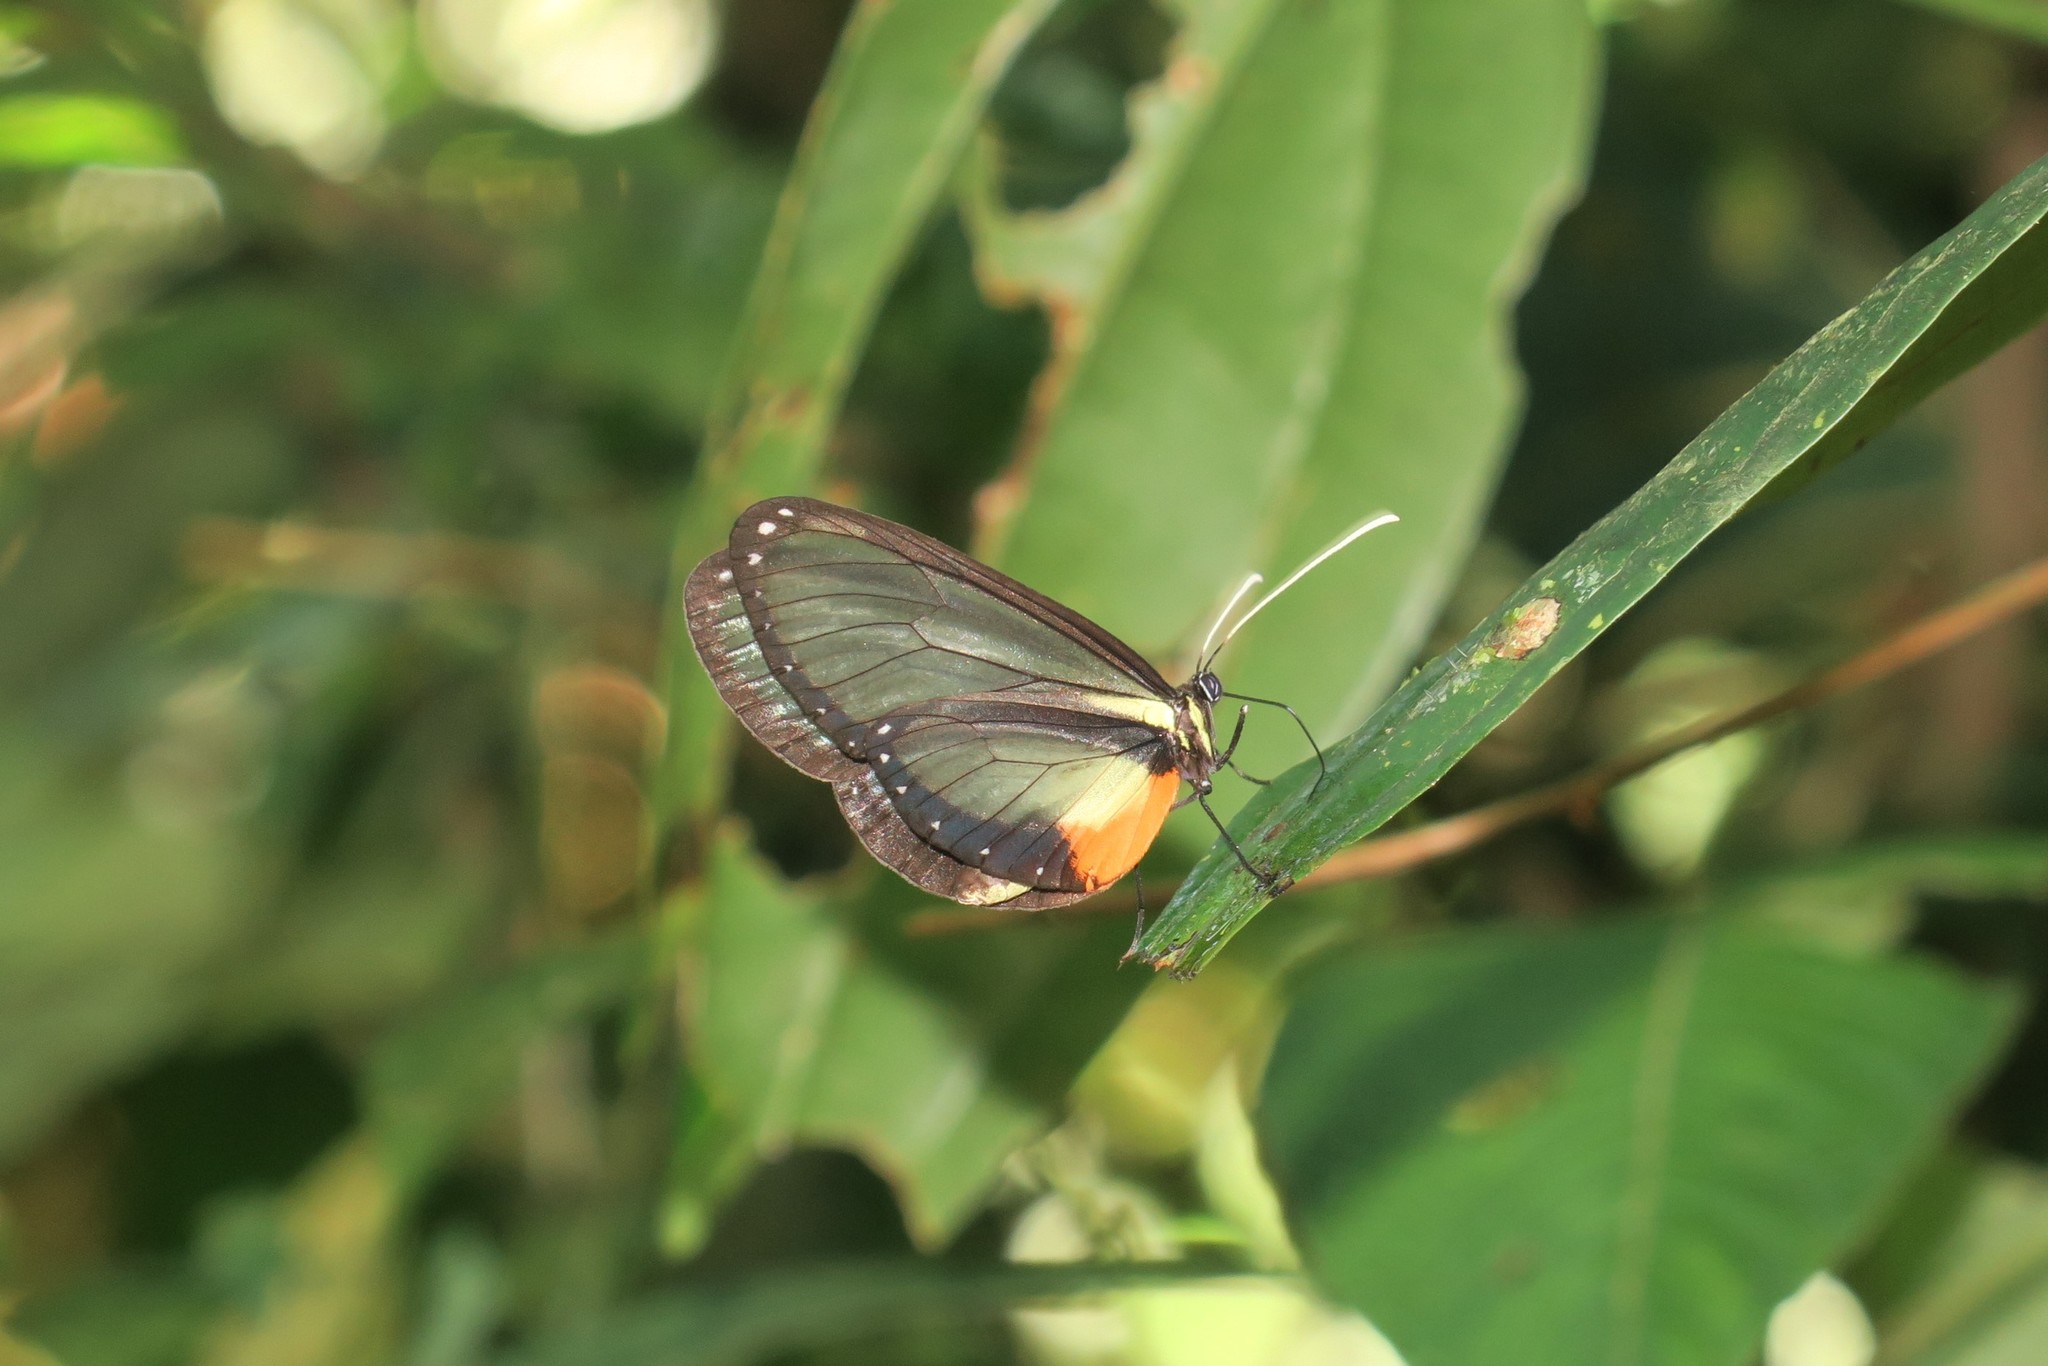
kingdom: Animalia
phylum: Arthropoda
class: Insecta
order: Lepidoptera
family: Nymphalidae
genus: Hyalyris
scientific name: Hyalyris
